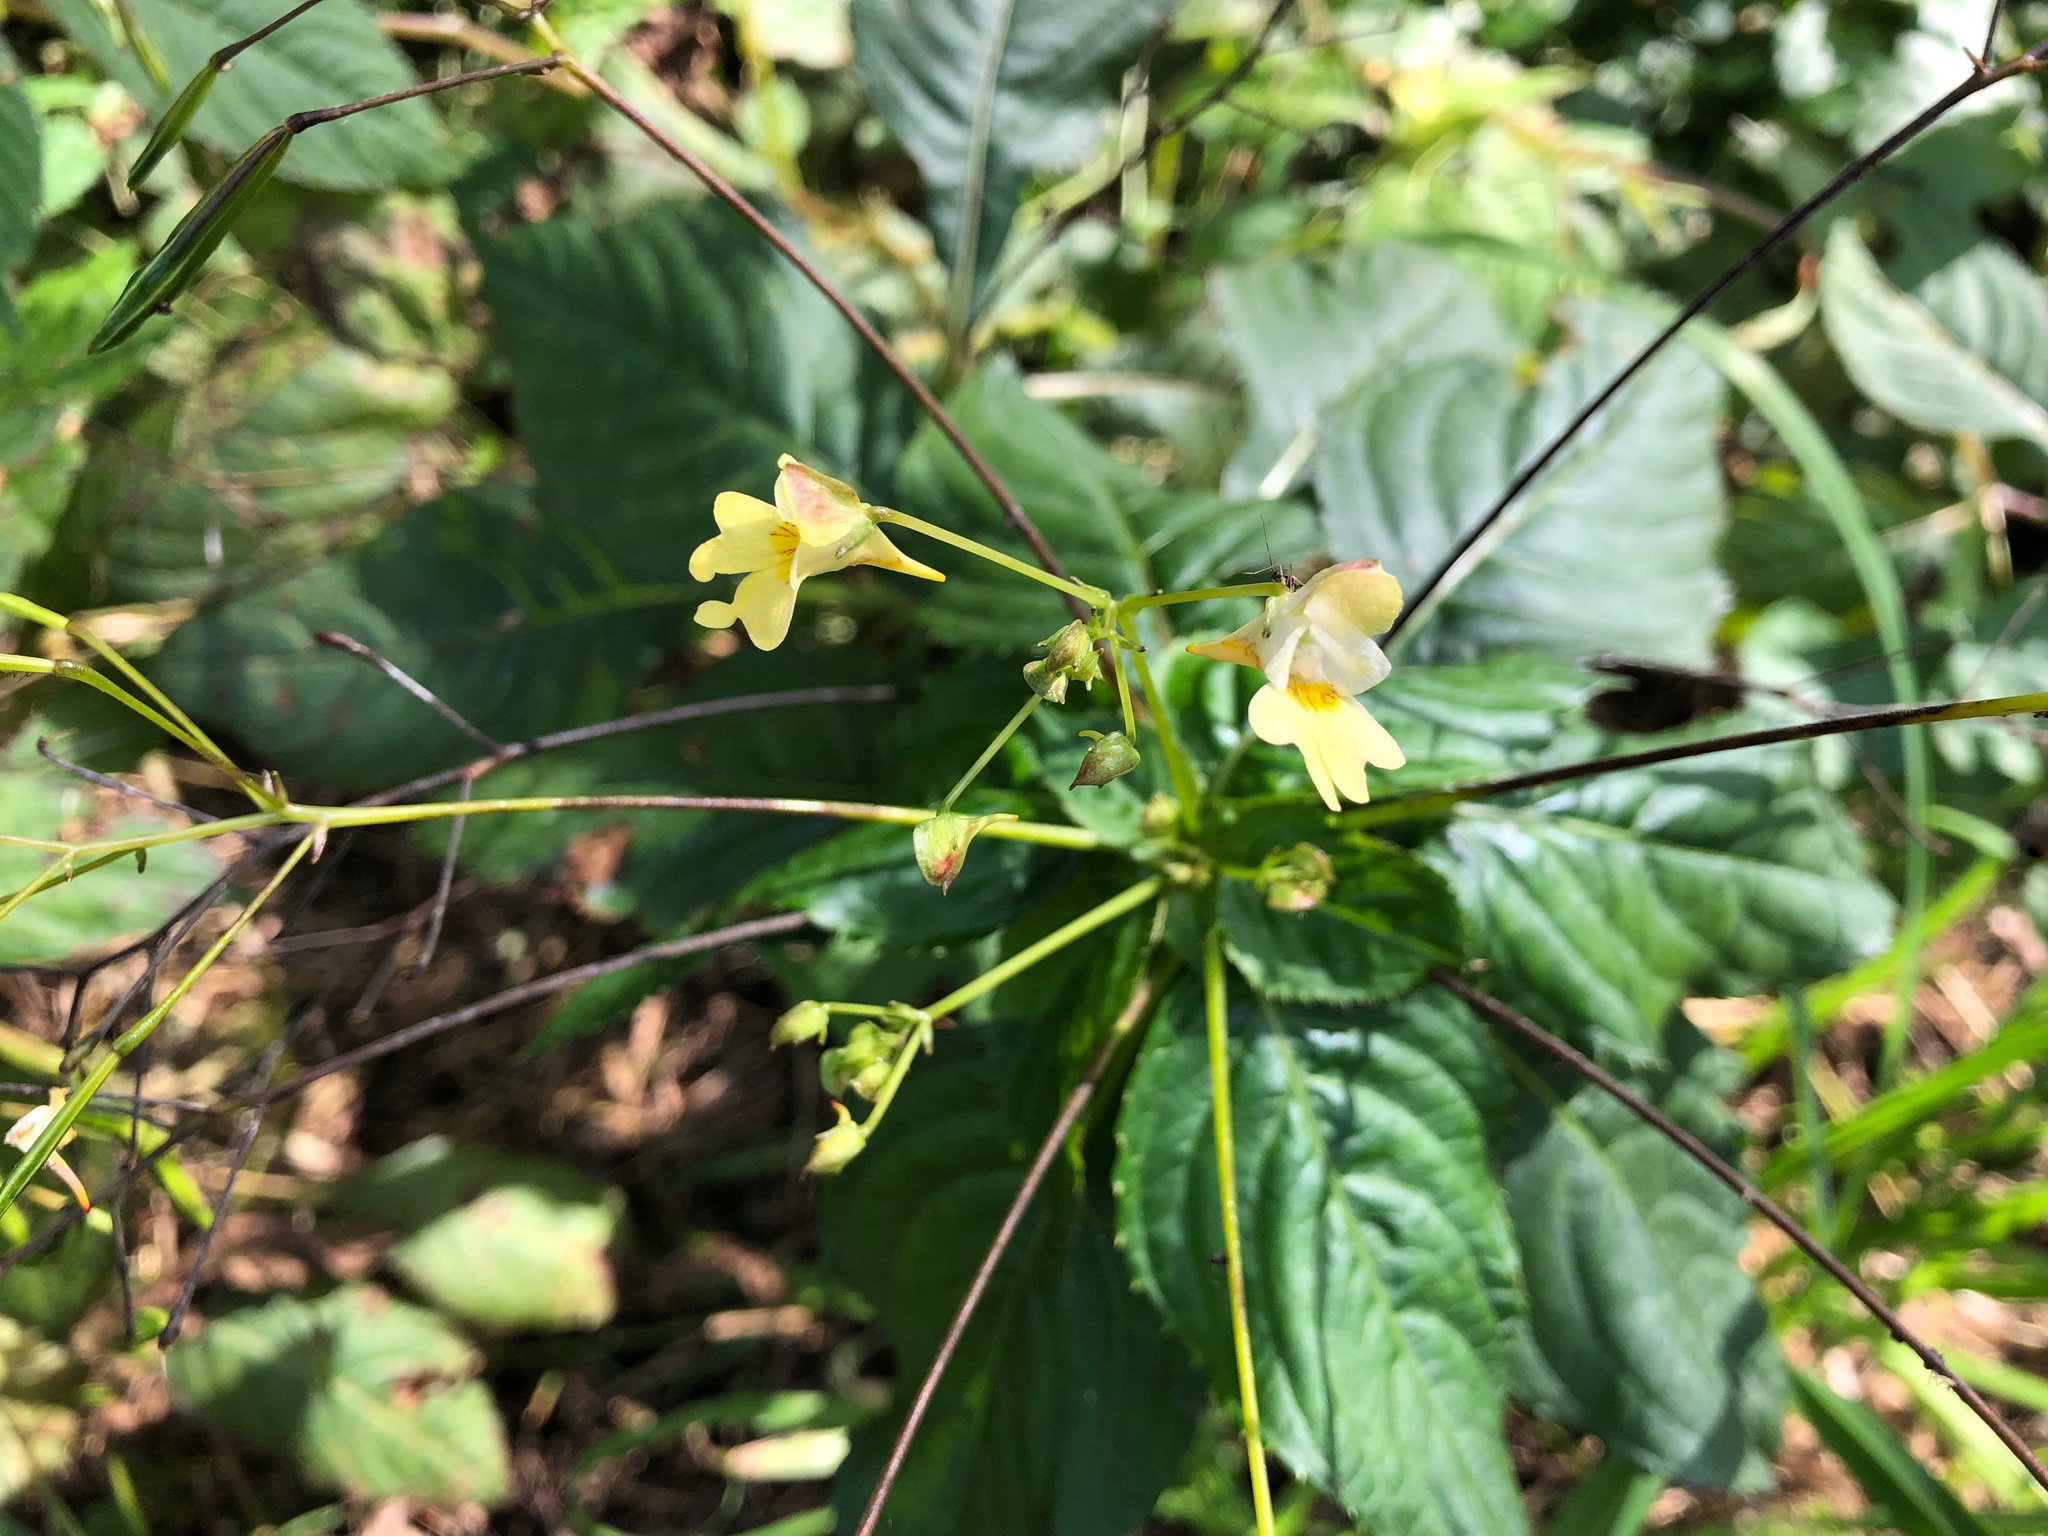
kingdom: Plantae
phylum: Tracheophyta
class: Magnoliopsida
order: Ericales
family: Balsaminaceae
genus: Impatiens
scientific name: Impatiens parviflora
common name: Small balsam
